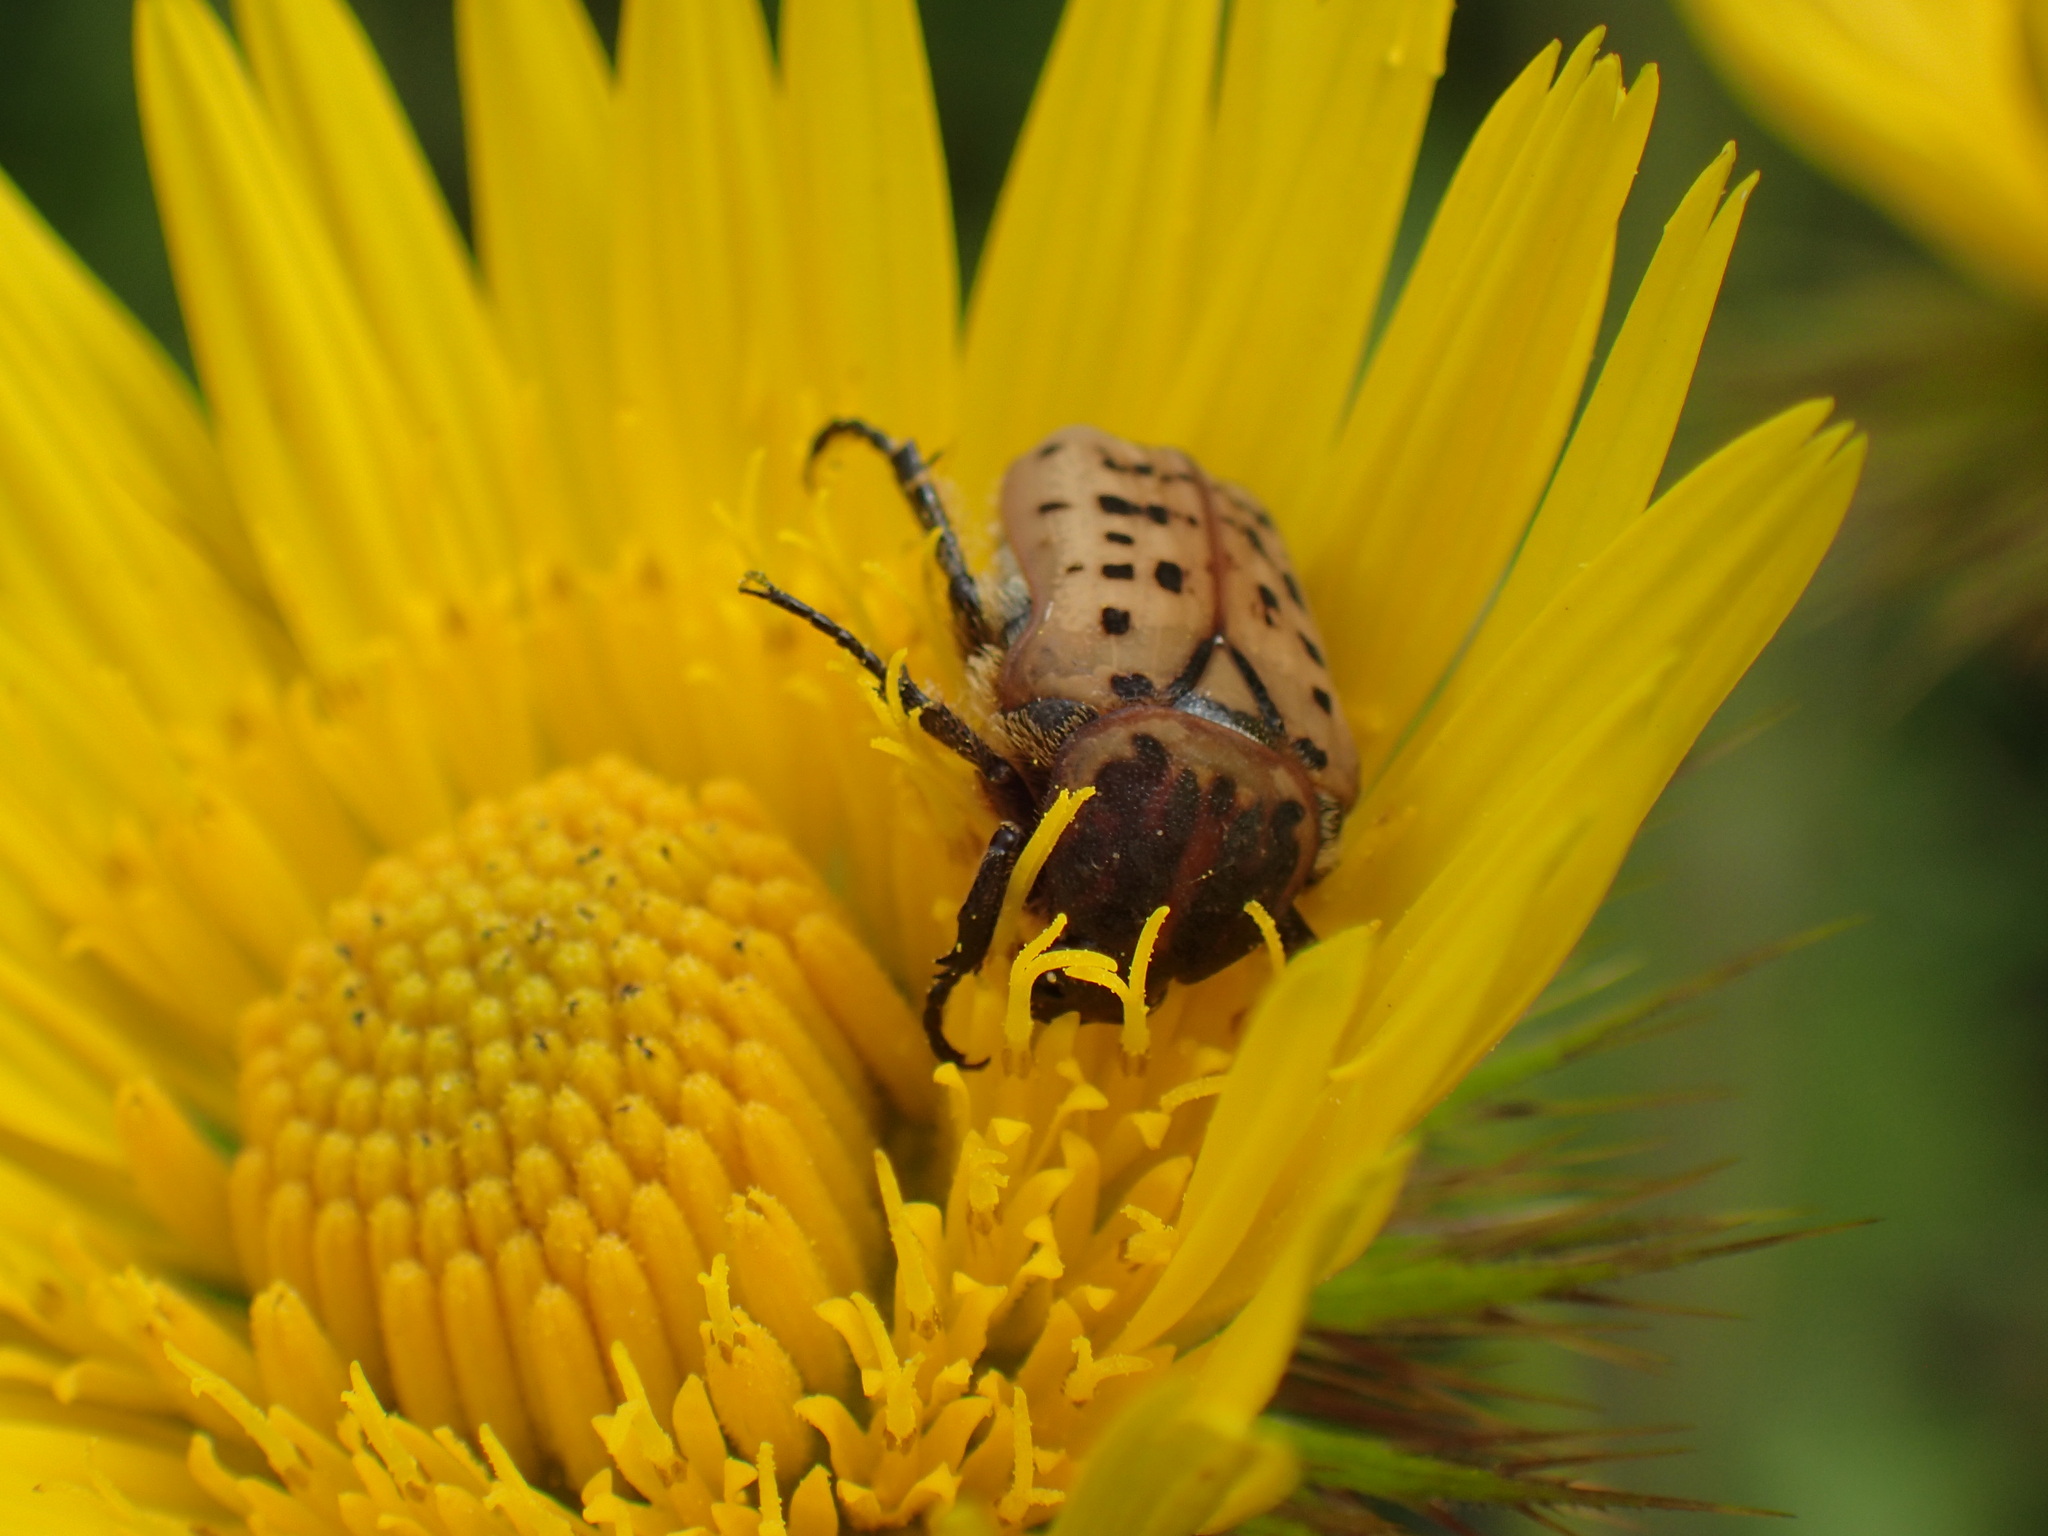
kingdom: Animalia
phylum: Arthropoda
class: Insecta
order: Coleoptera
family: Scarabaeidae
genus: Atrichelaphinis
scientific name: Atrichelaphinis tigrina
